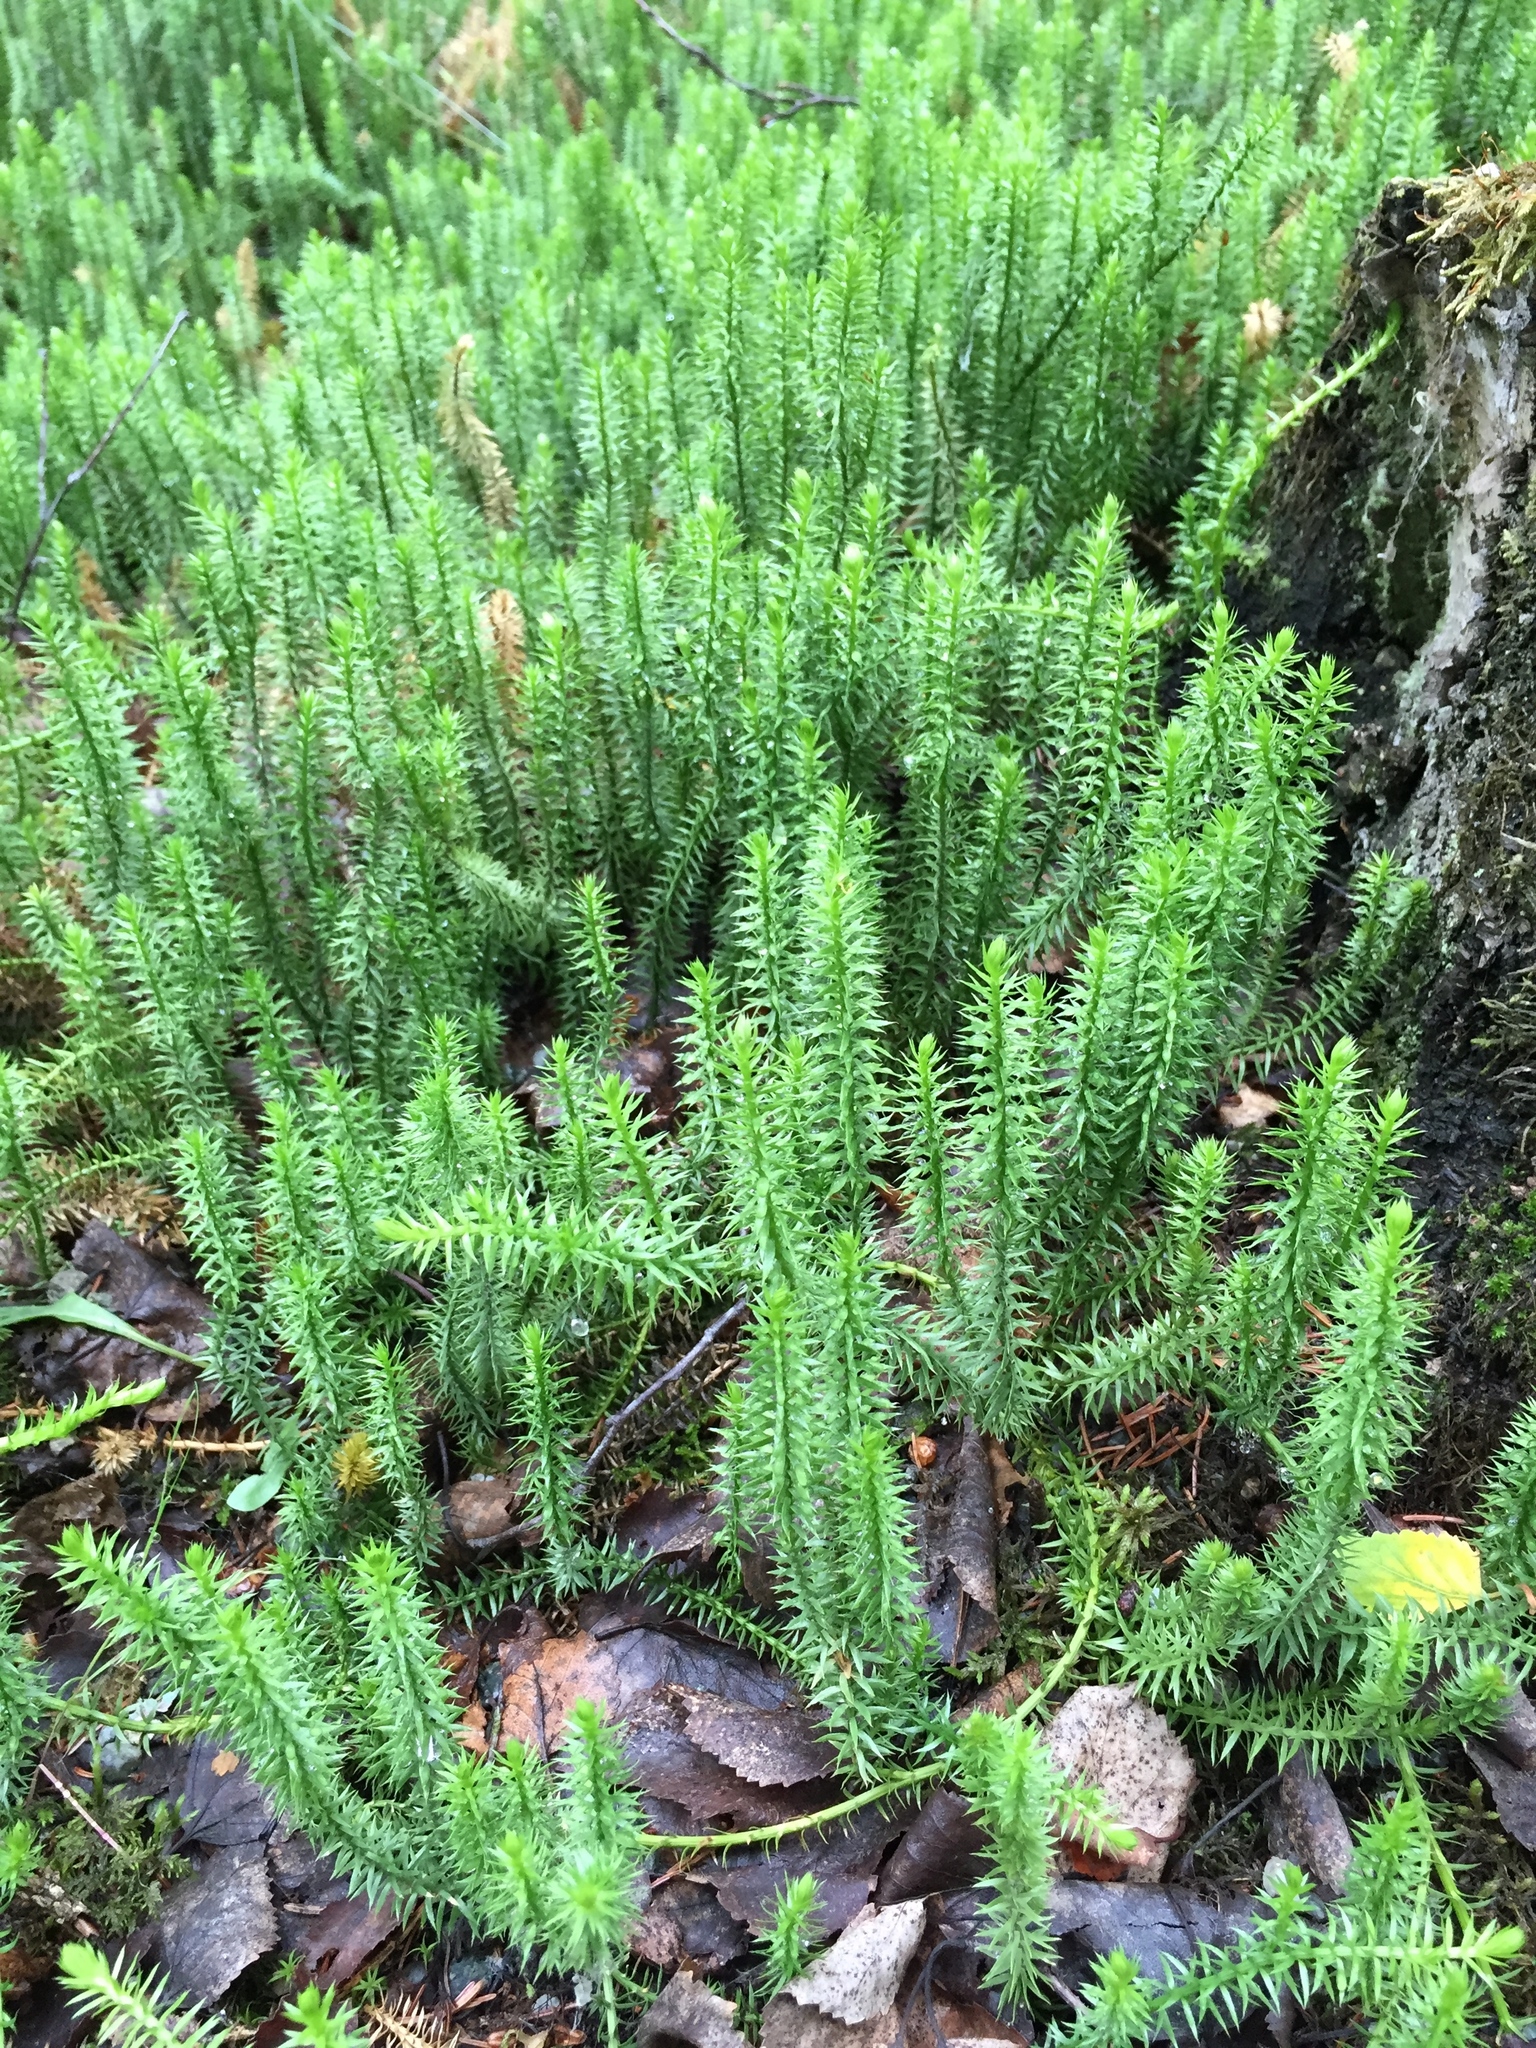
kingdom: Plantae
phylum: Tracheophyta
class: Lycopodiopsida
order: Lycopodiales
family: Lycopodiaceae
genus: Spinulum
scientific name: Spinulum annotinum
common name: Interrupted club-moss
